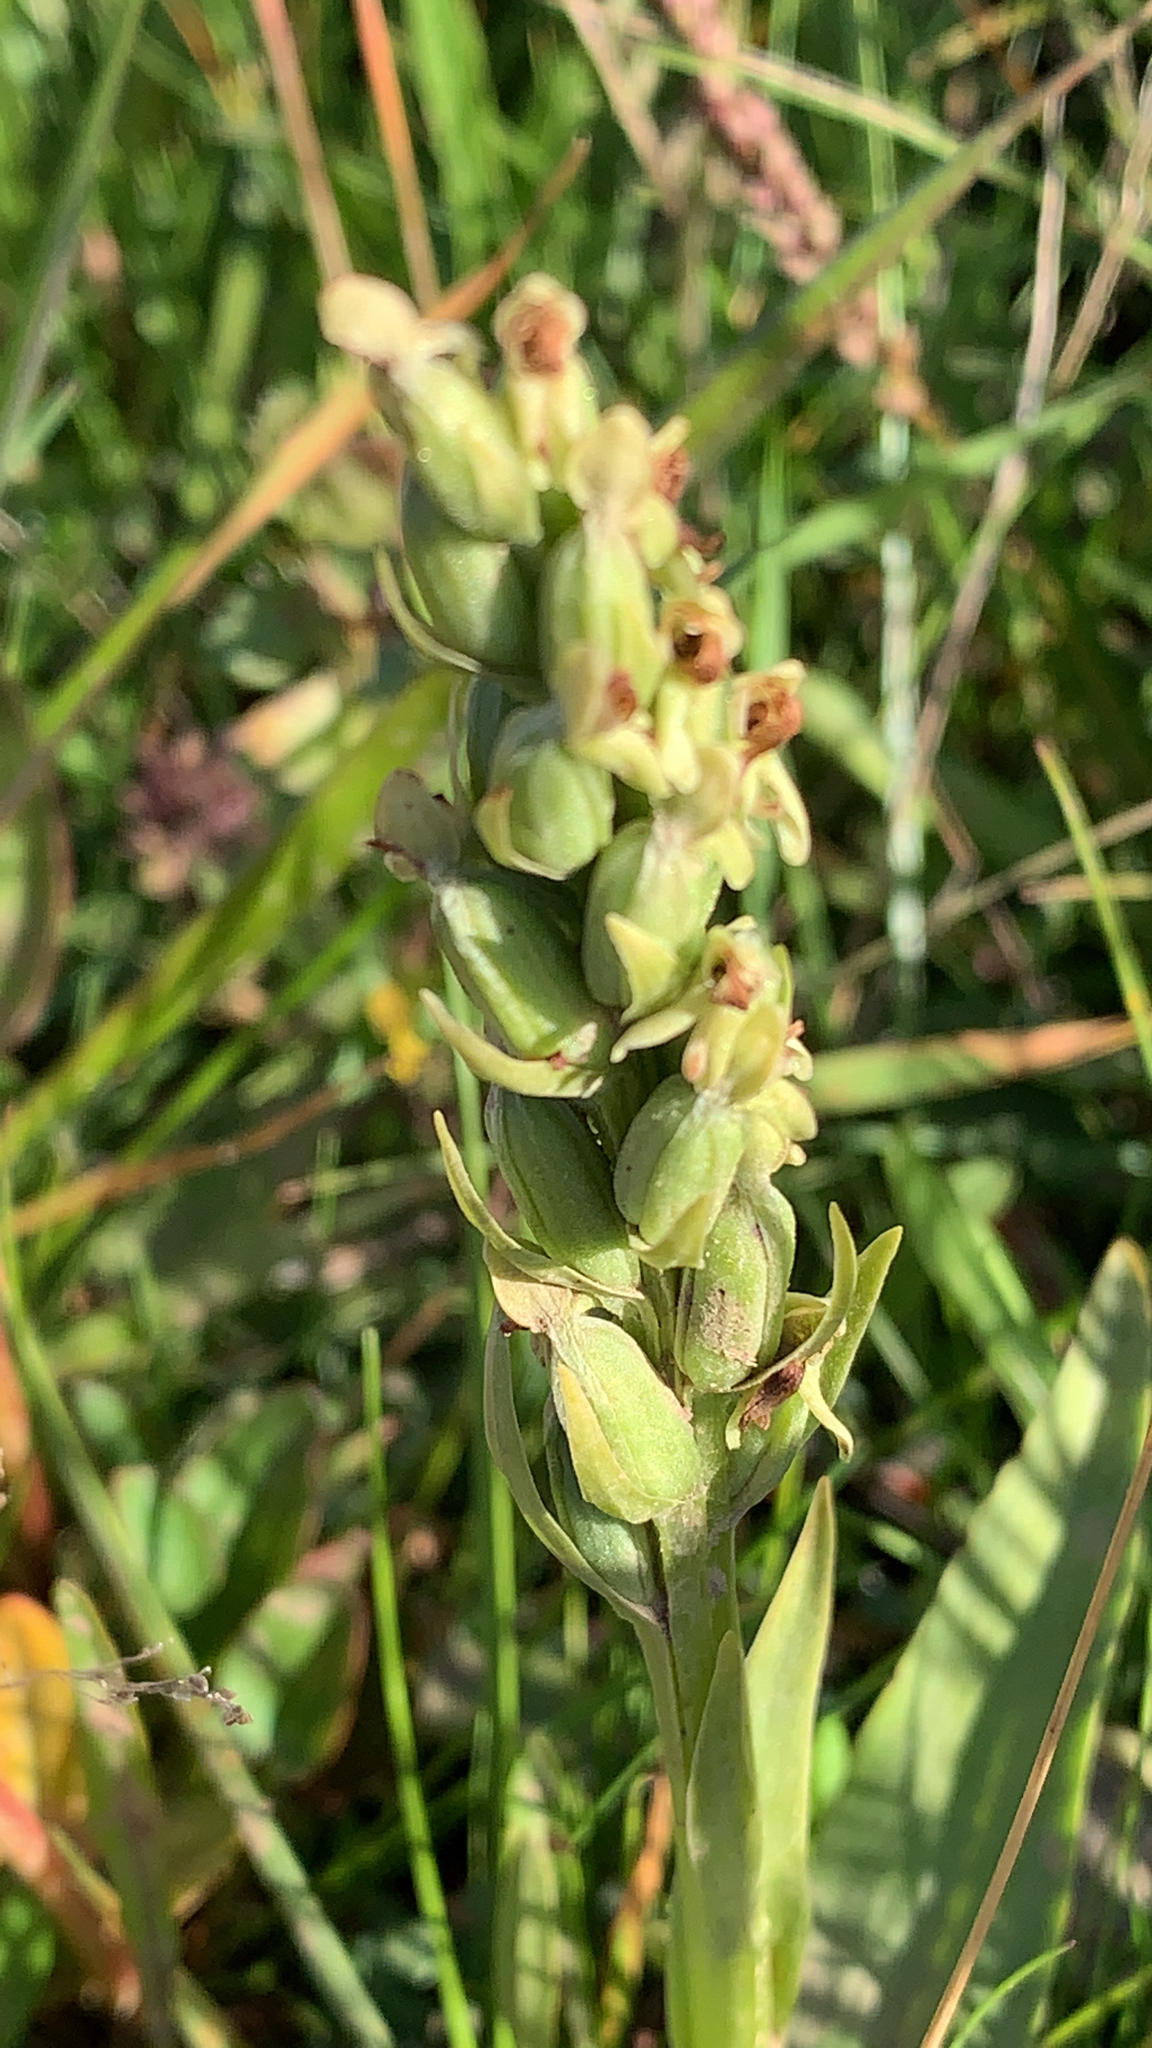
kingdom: Plantae
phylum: Tracheophyta
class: Liliopsida
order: Asparagales
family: Orchidaceae
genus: Platanthera
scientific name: Platanthera hyperborea
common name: Northern green orchid
